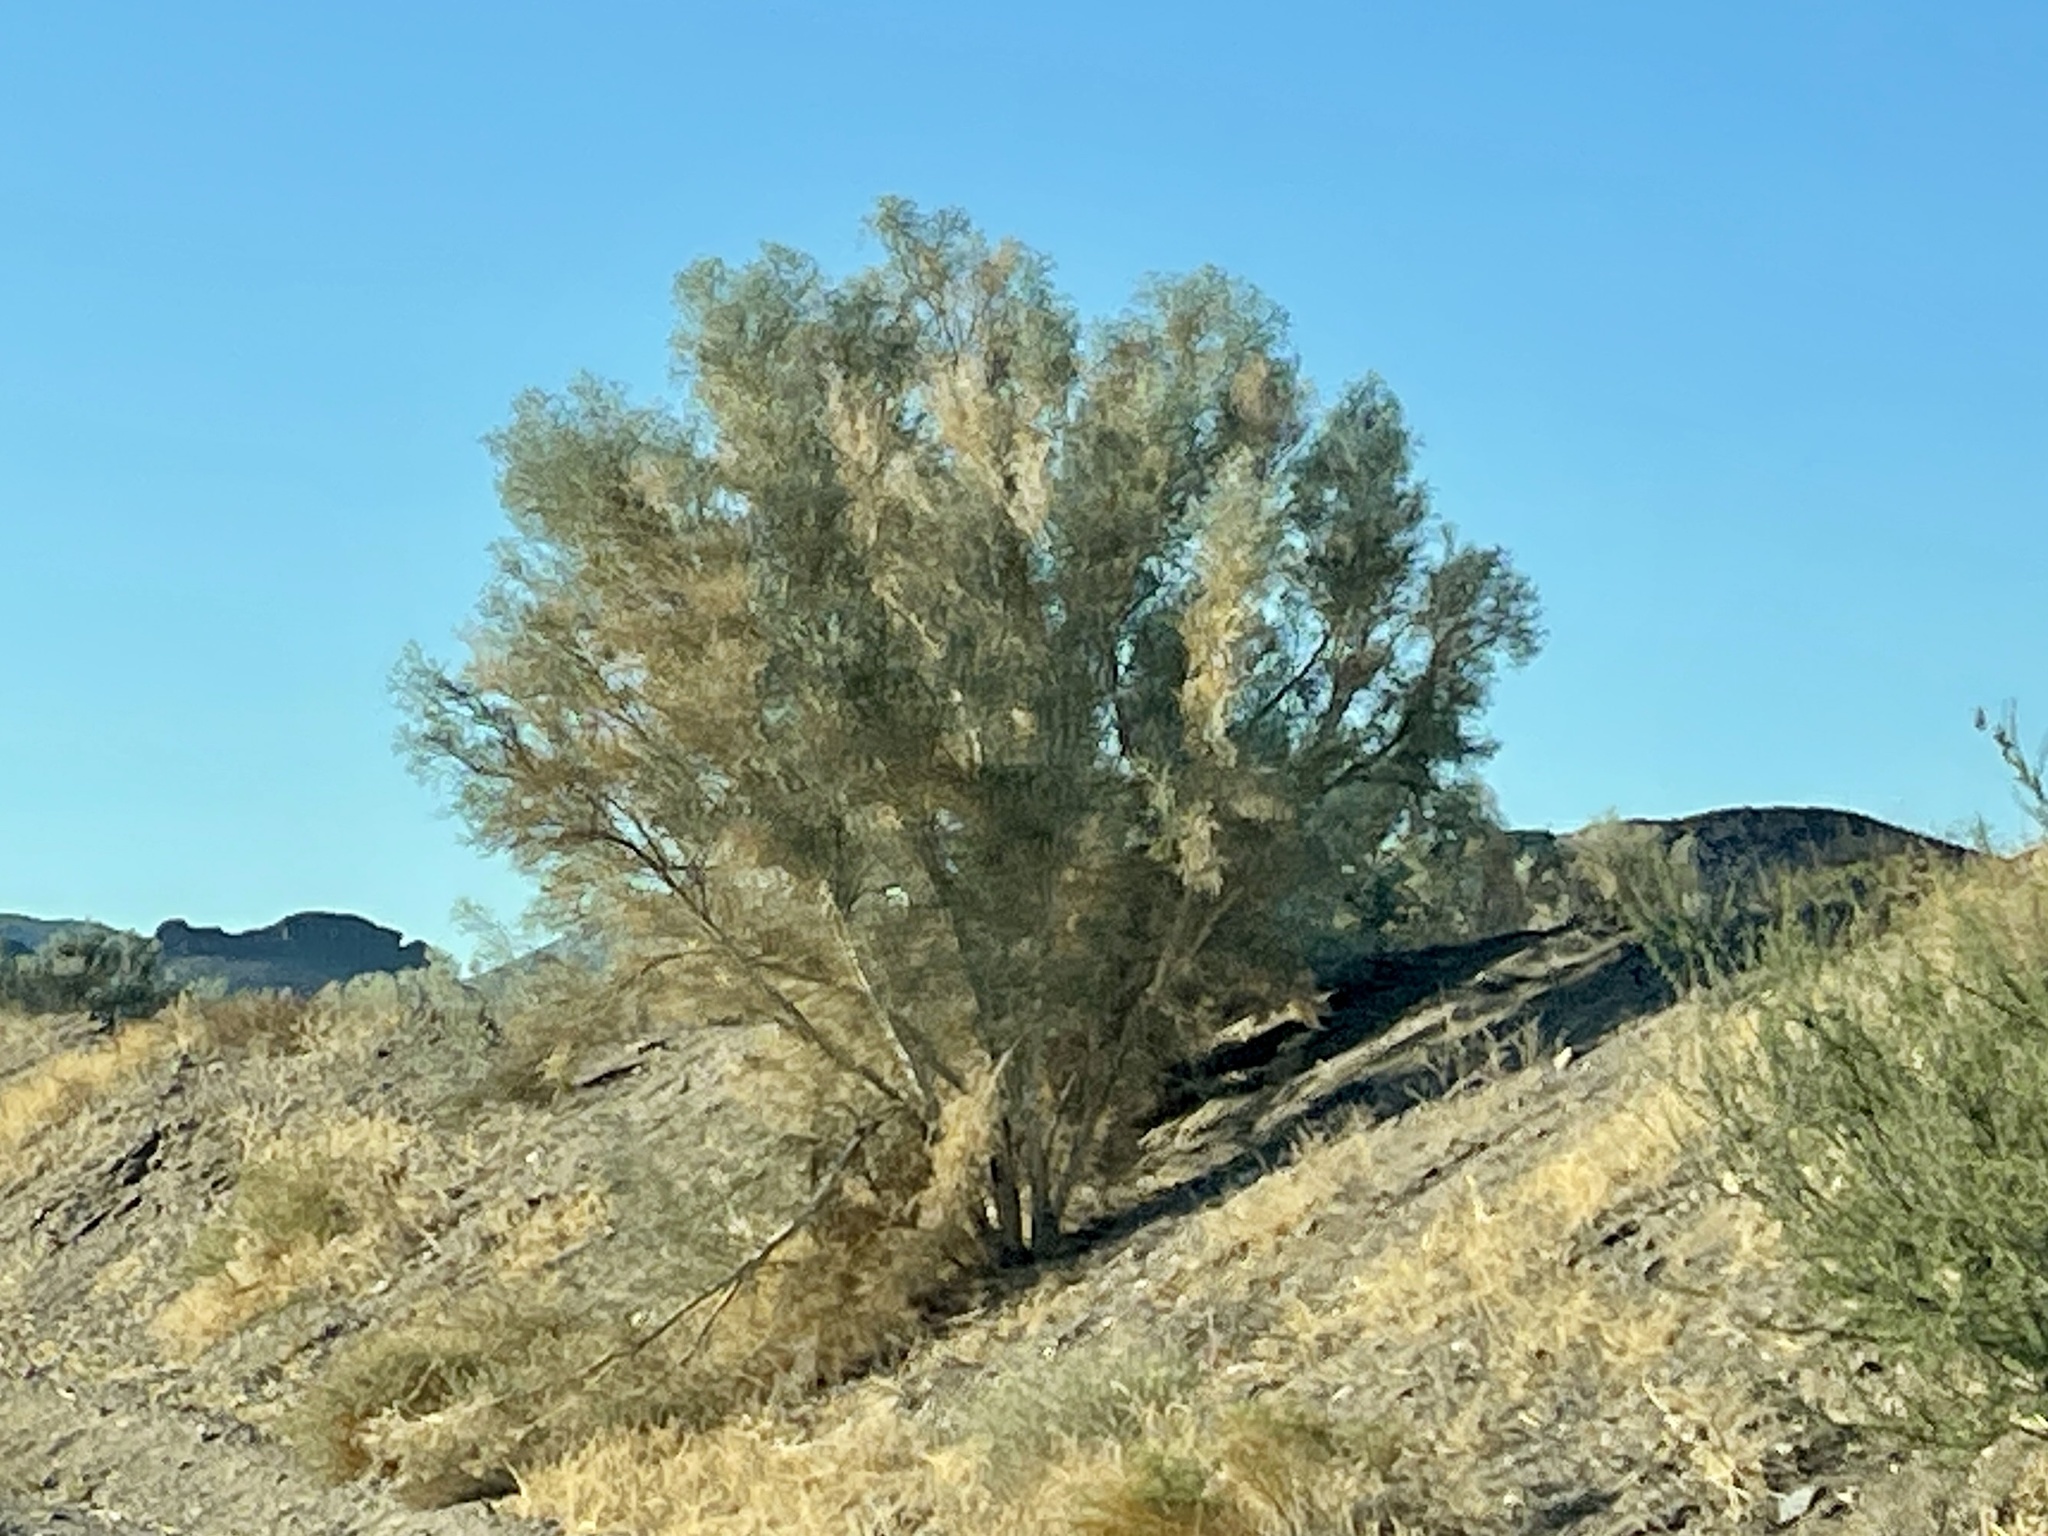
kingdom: Plantae
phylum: Tracheophyta
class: Magnoliopsida
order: Fabales
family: Fabaceae
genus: Psorothamnus
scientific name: Psorothamnus spinosus
